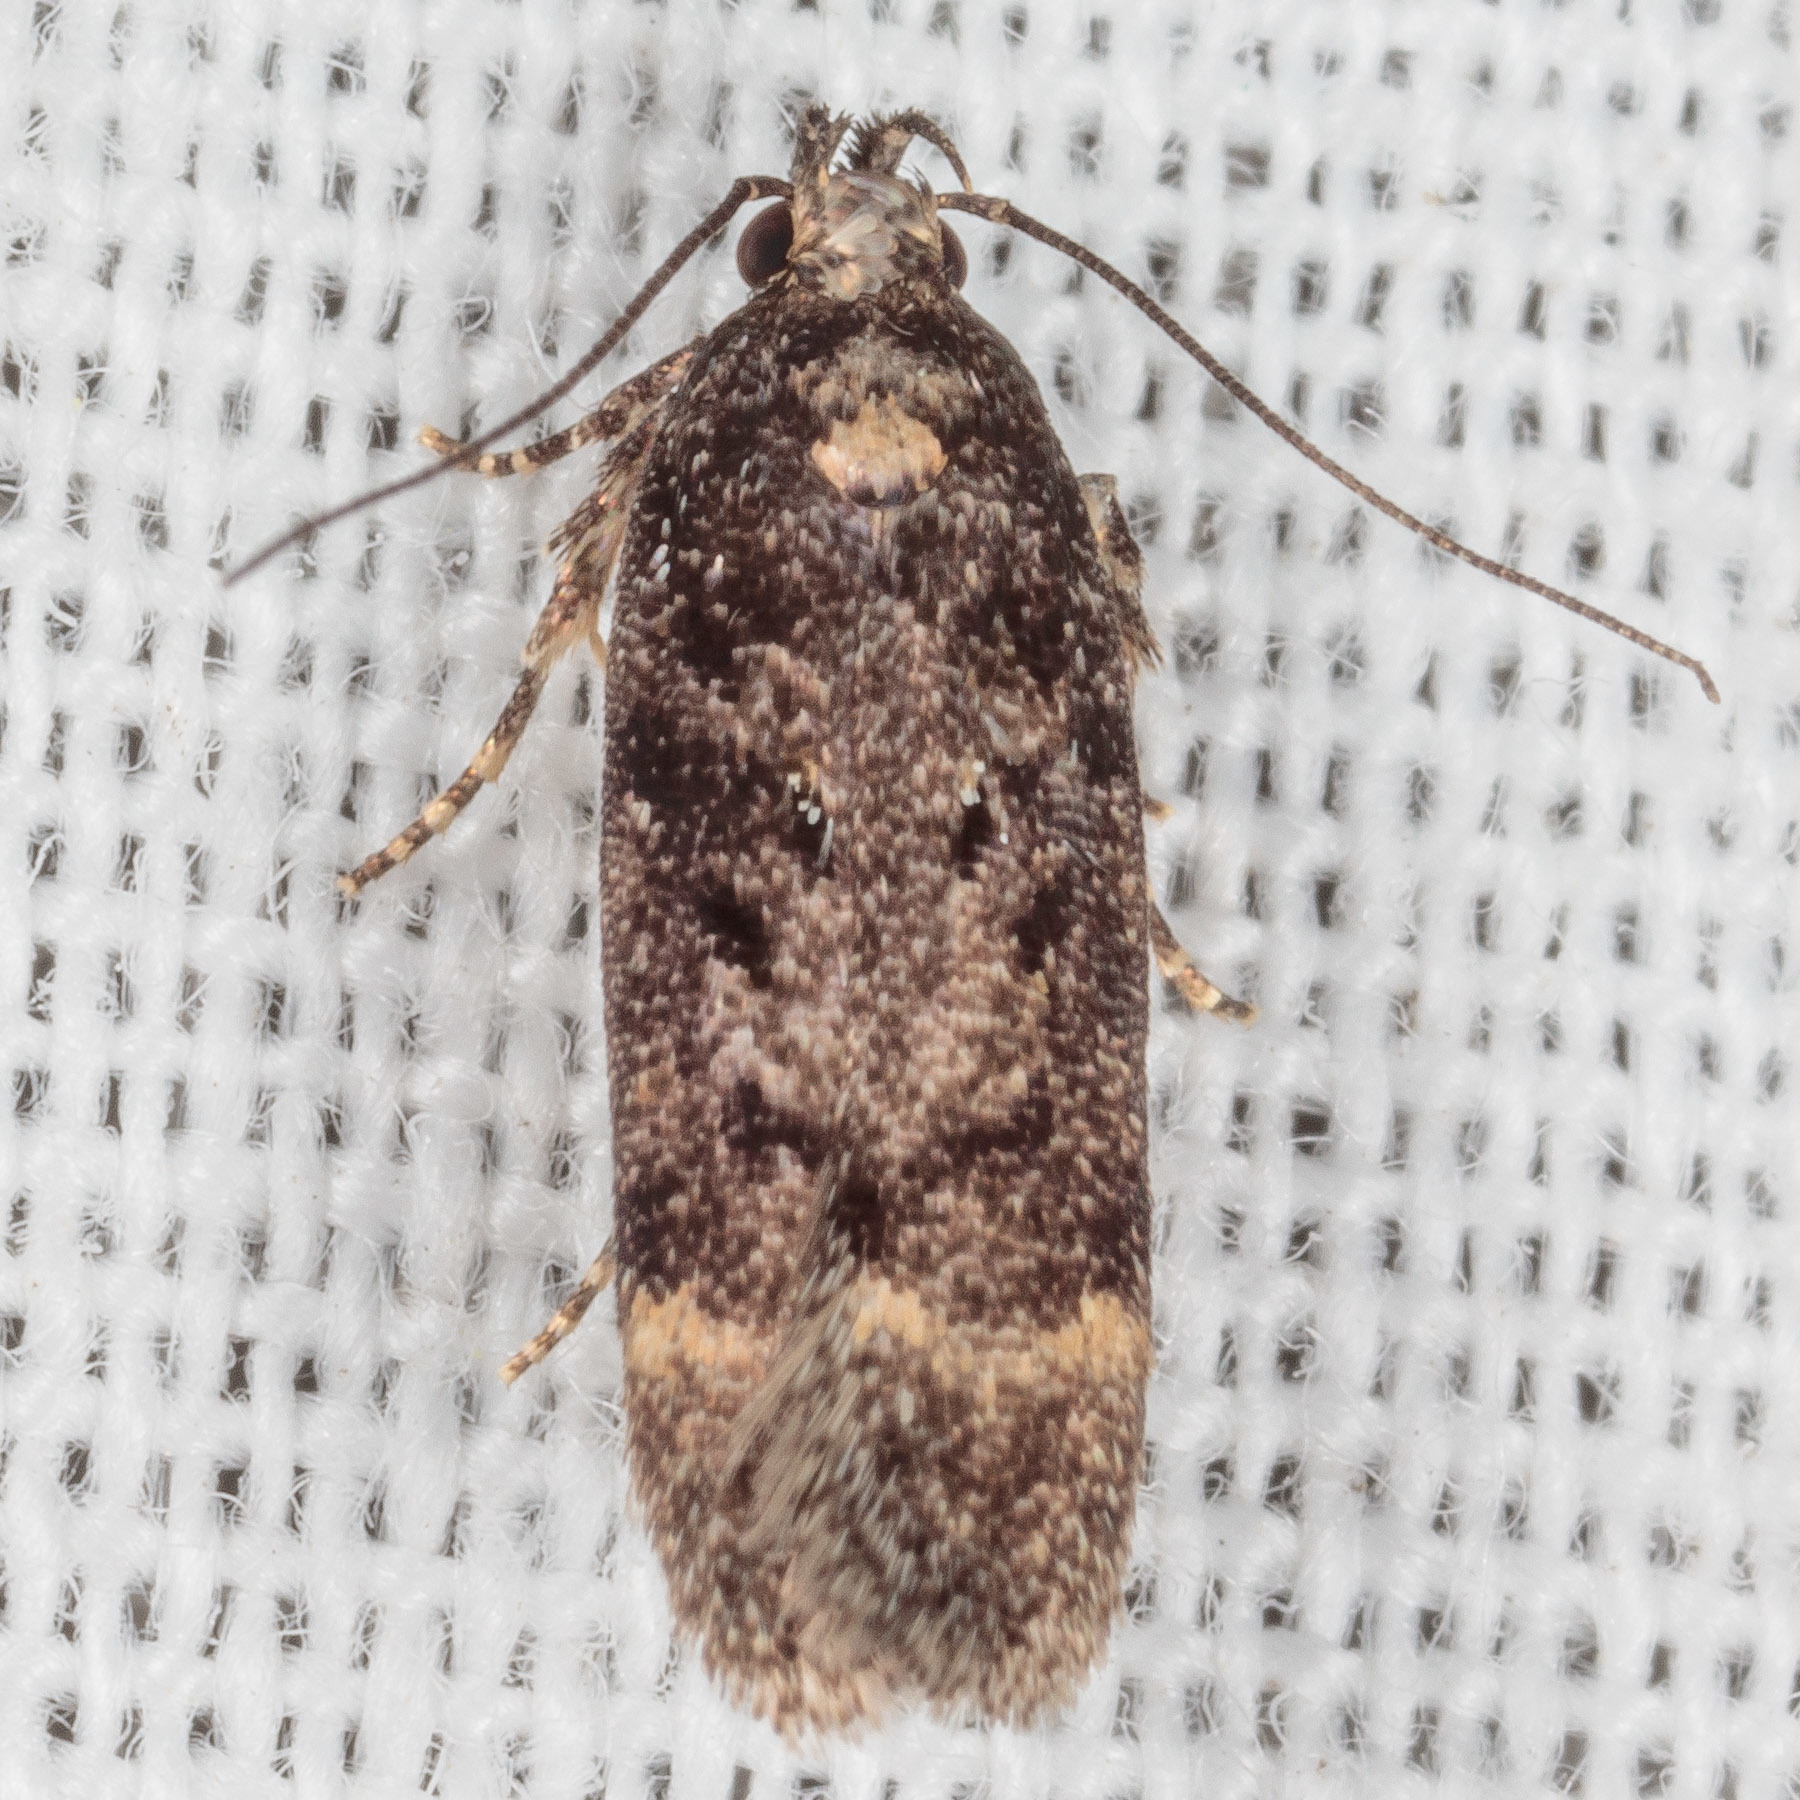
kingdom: Animalia
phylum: Arthropoda
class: Insecta
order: Lepidoptera
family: Gelechiidae
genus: Chionodes
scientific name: Chionodes thoraceochrella
